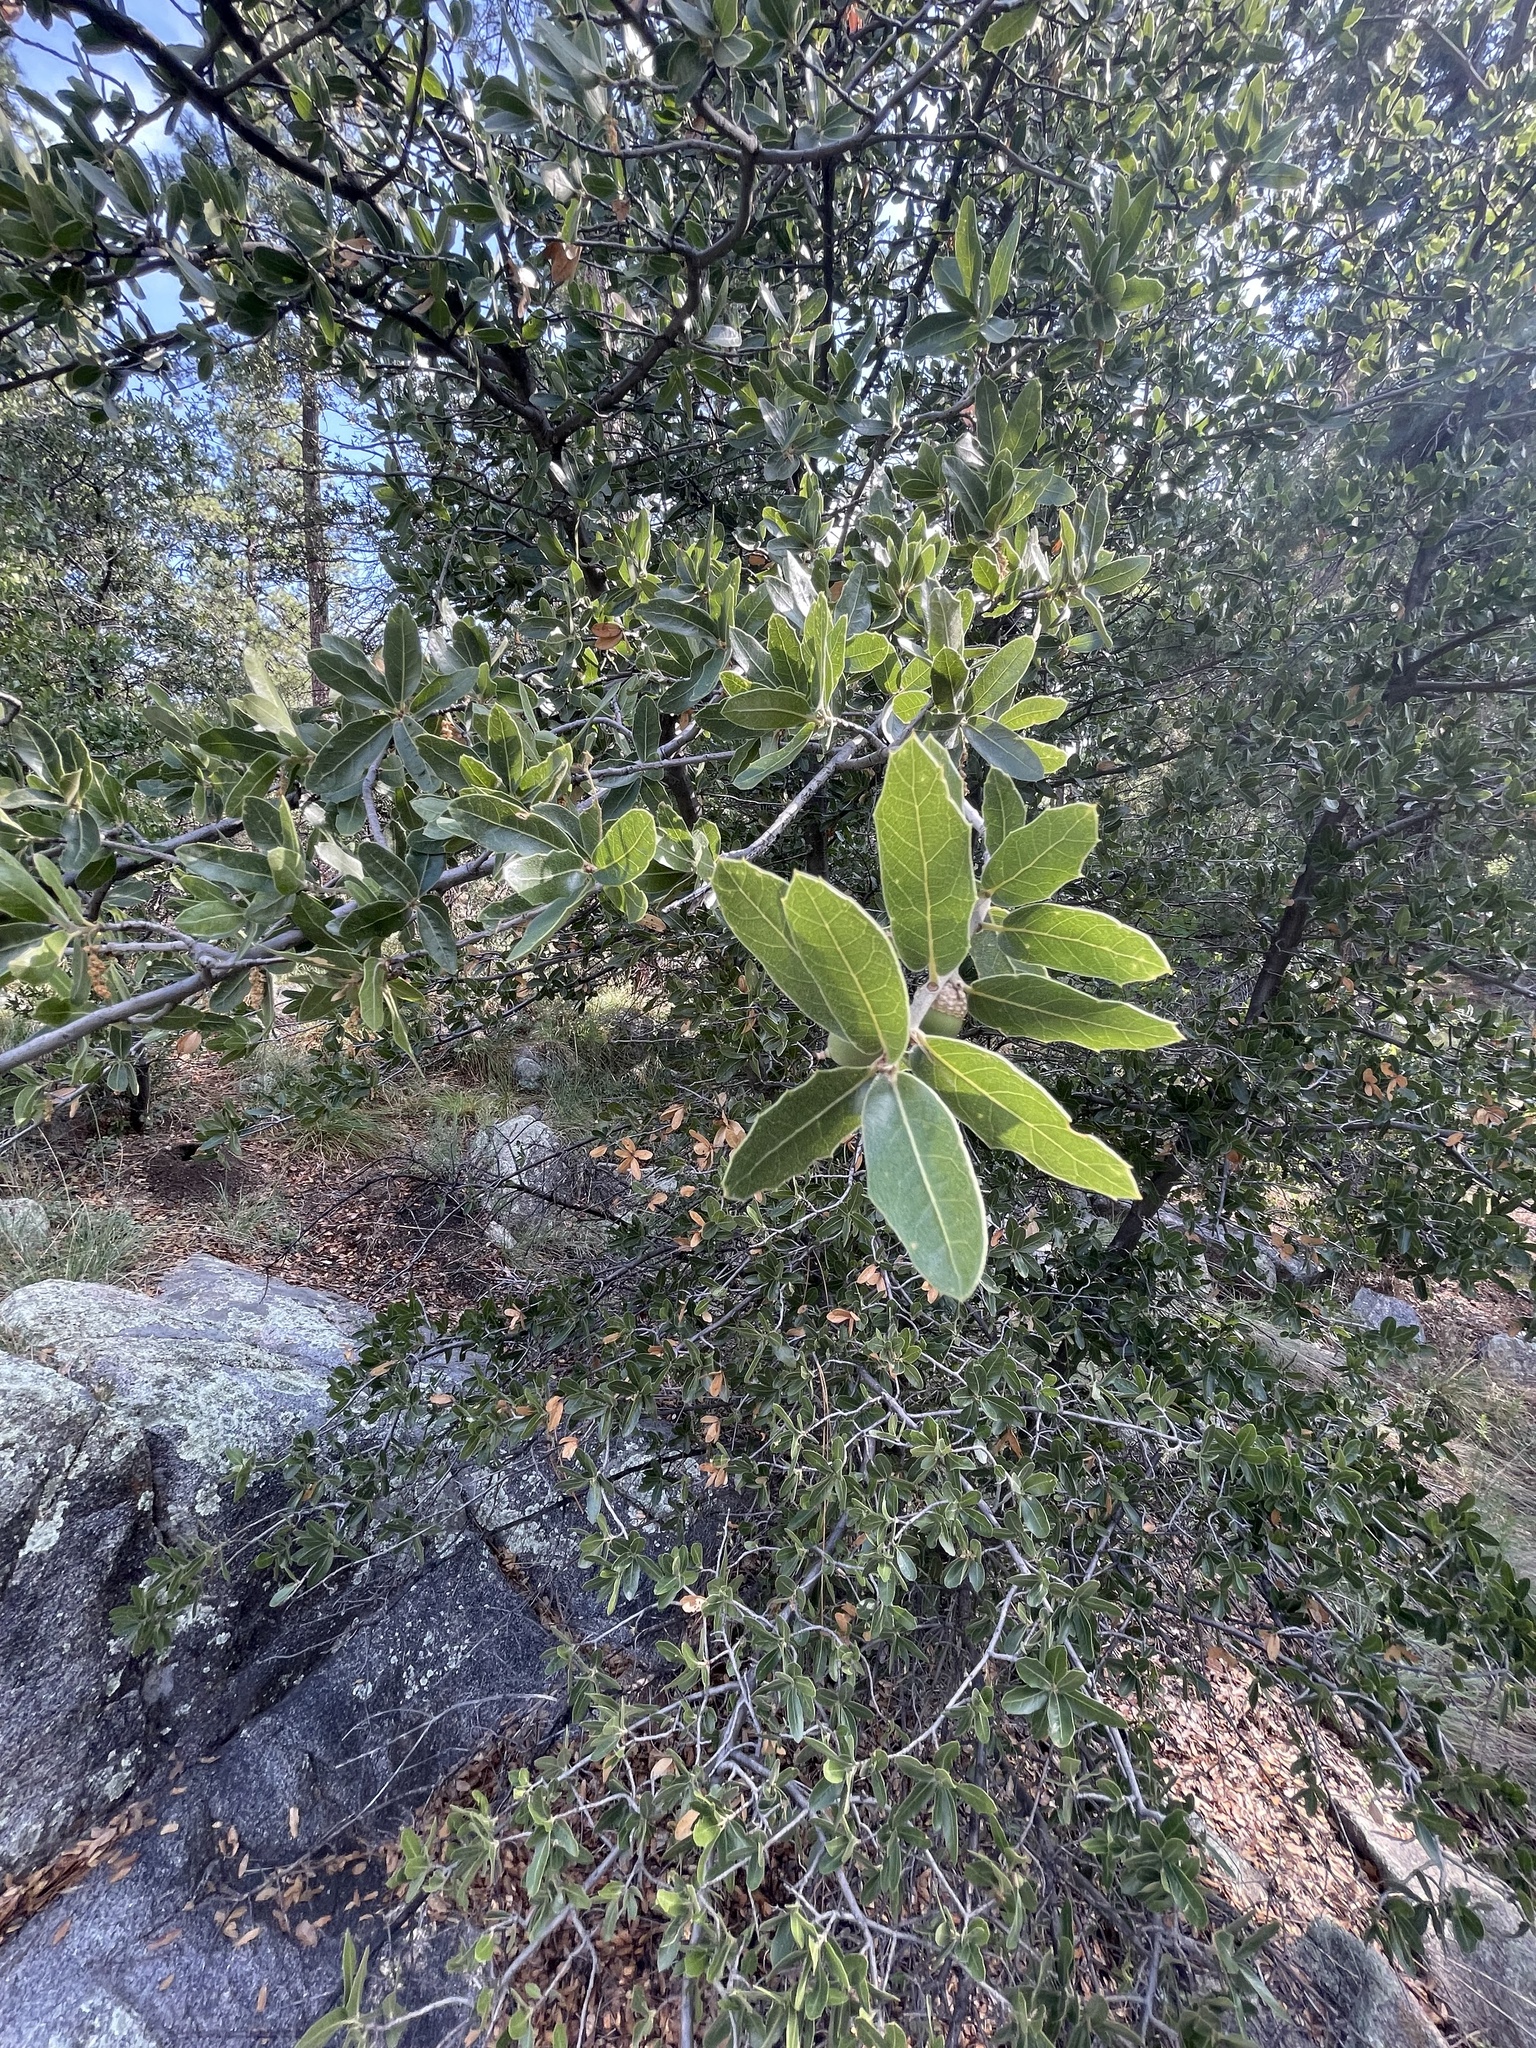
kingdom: Plantae
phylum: Tracheophyta
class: Magnoliopsida
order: Fagales
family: Fagaceae
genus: Quercus
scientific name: Quercus emoryi
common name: Emory oak
